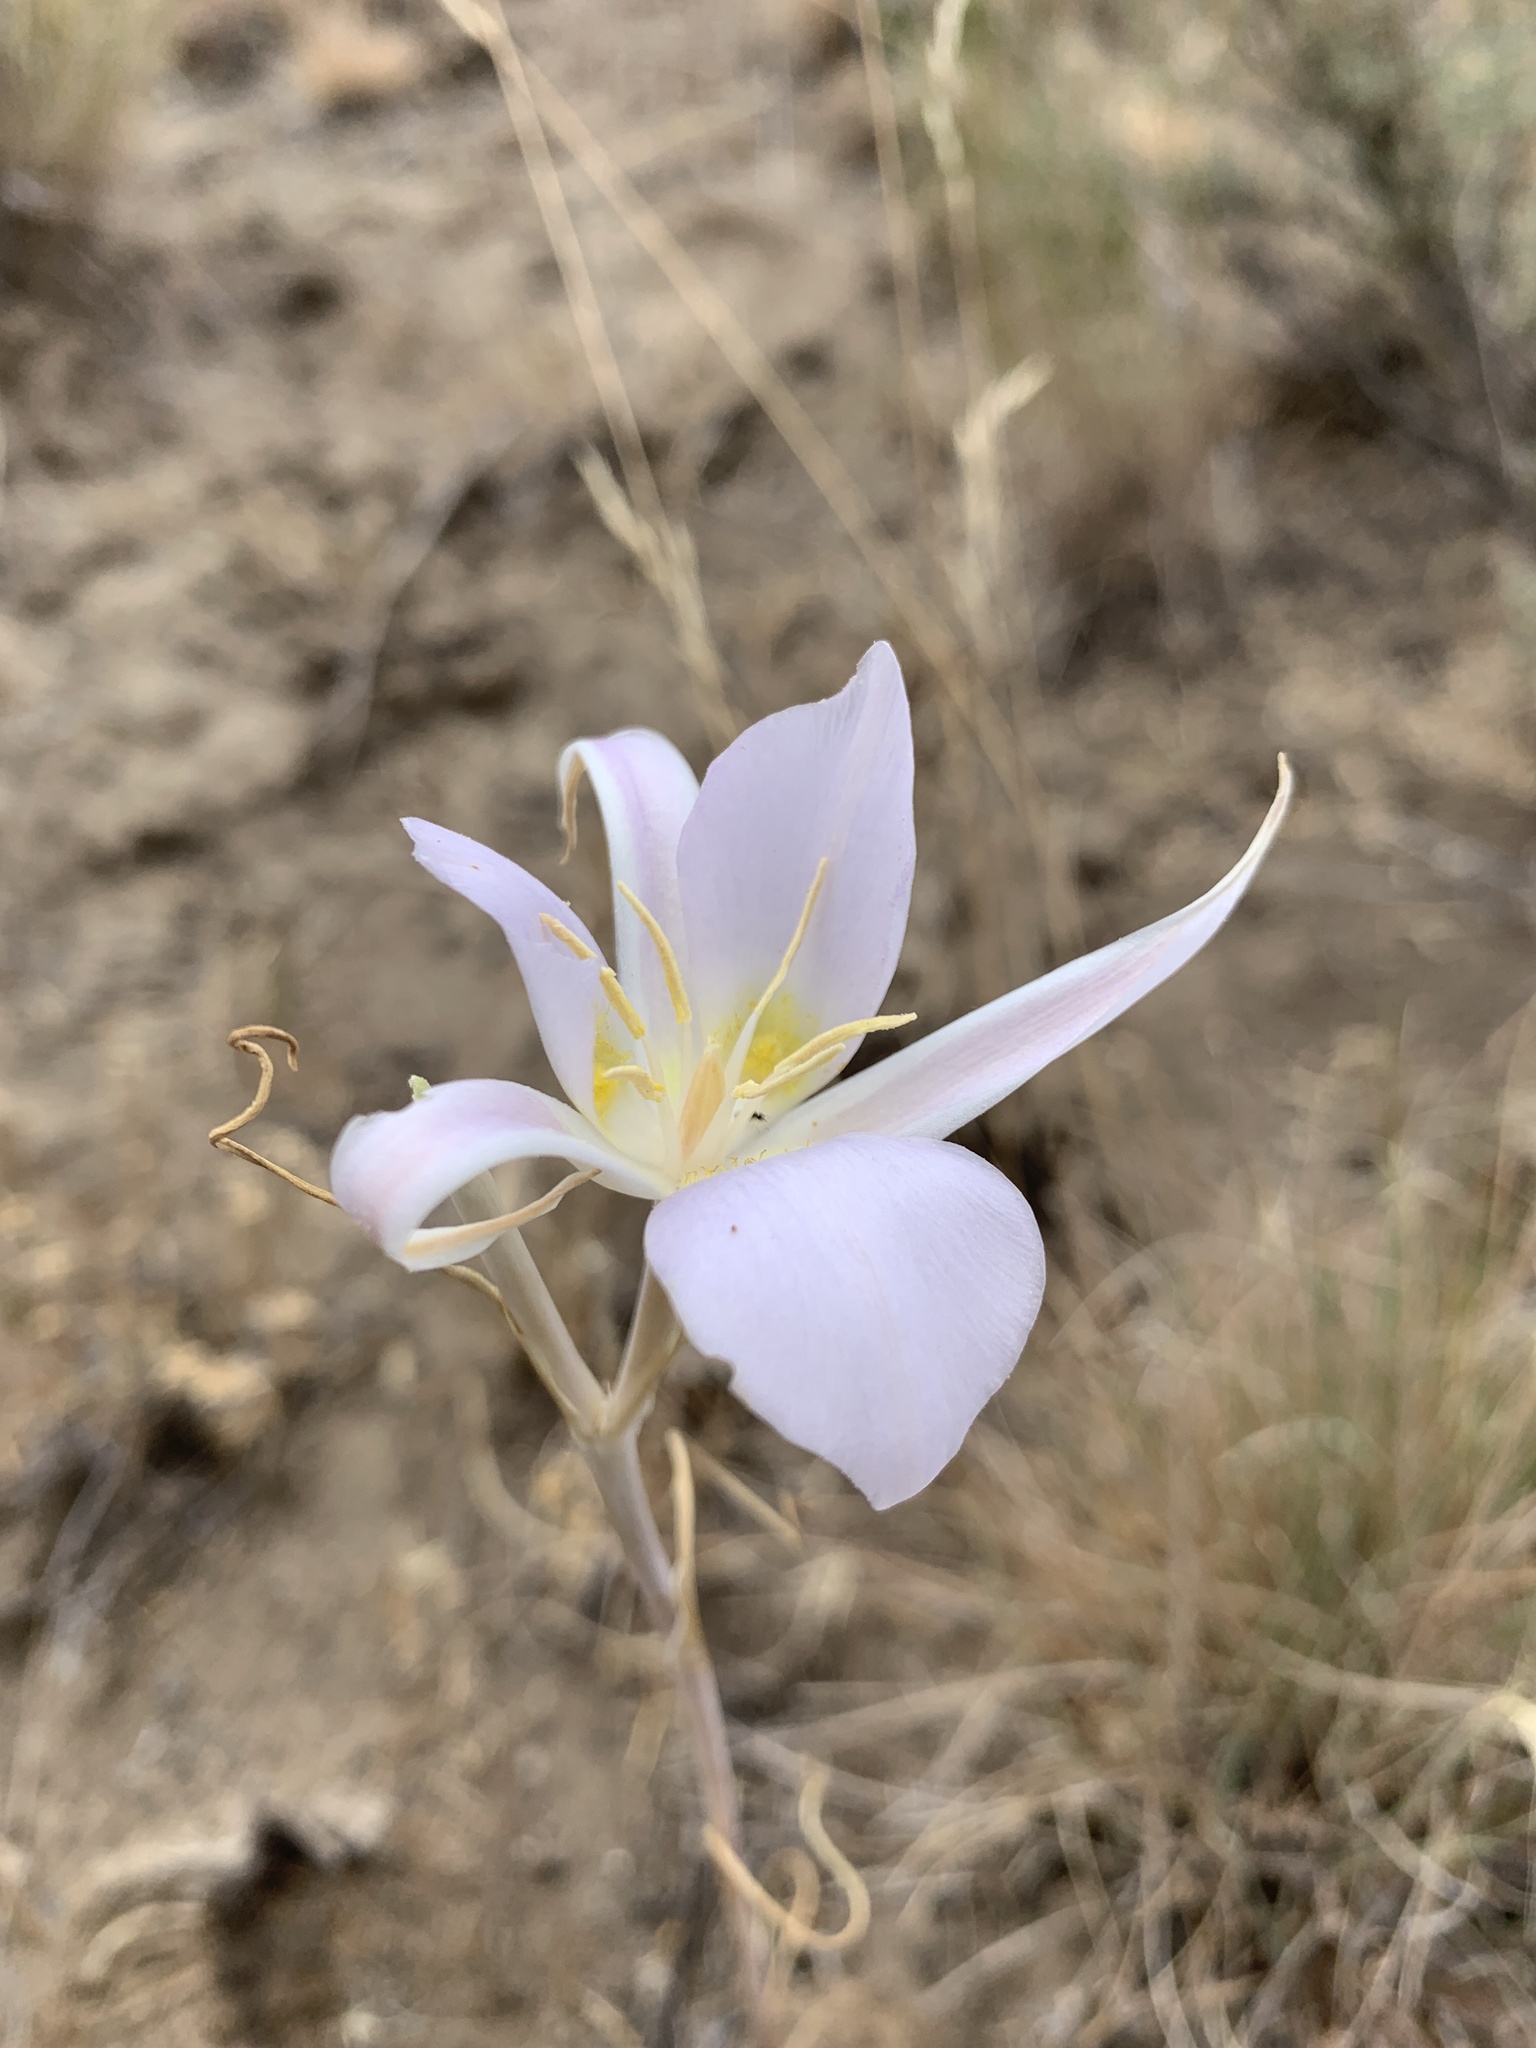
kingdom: Plantae
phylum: Tracheophyta
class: Liliopsida
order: Liliales
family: Liliaceae
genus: Calochortus
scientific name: Calochortus macrocarpus
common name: Green-band mariposa lily
